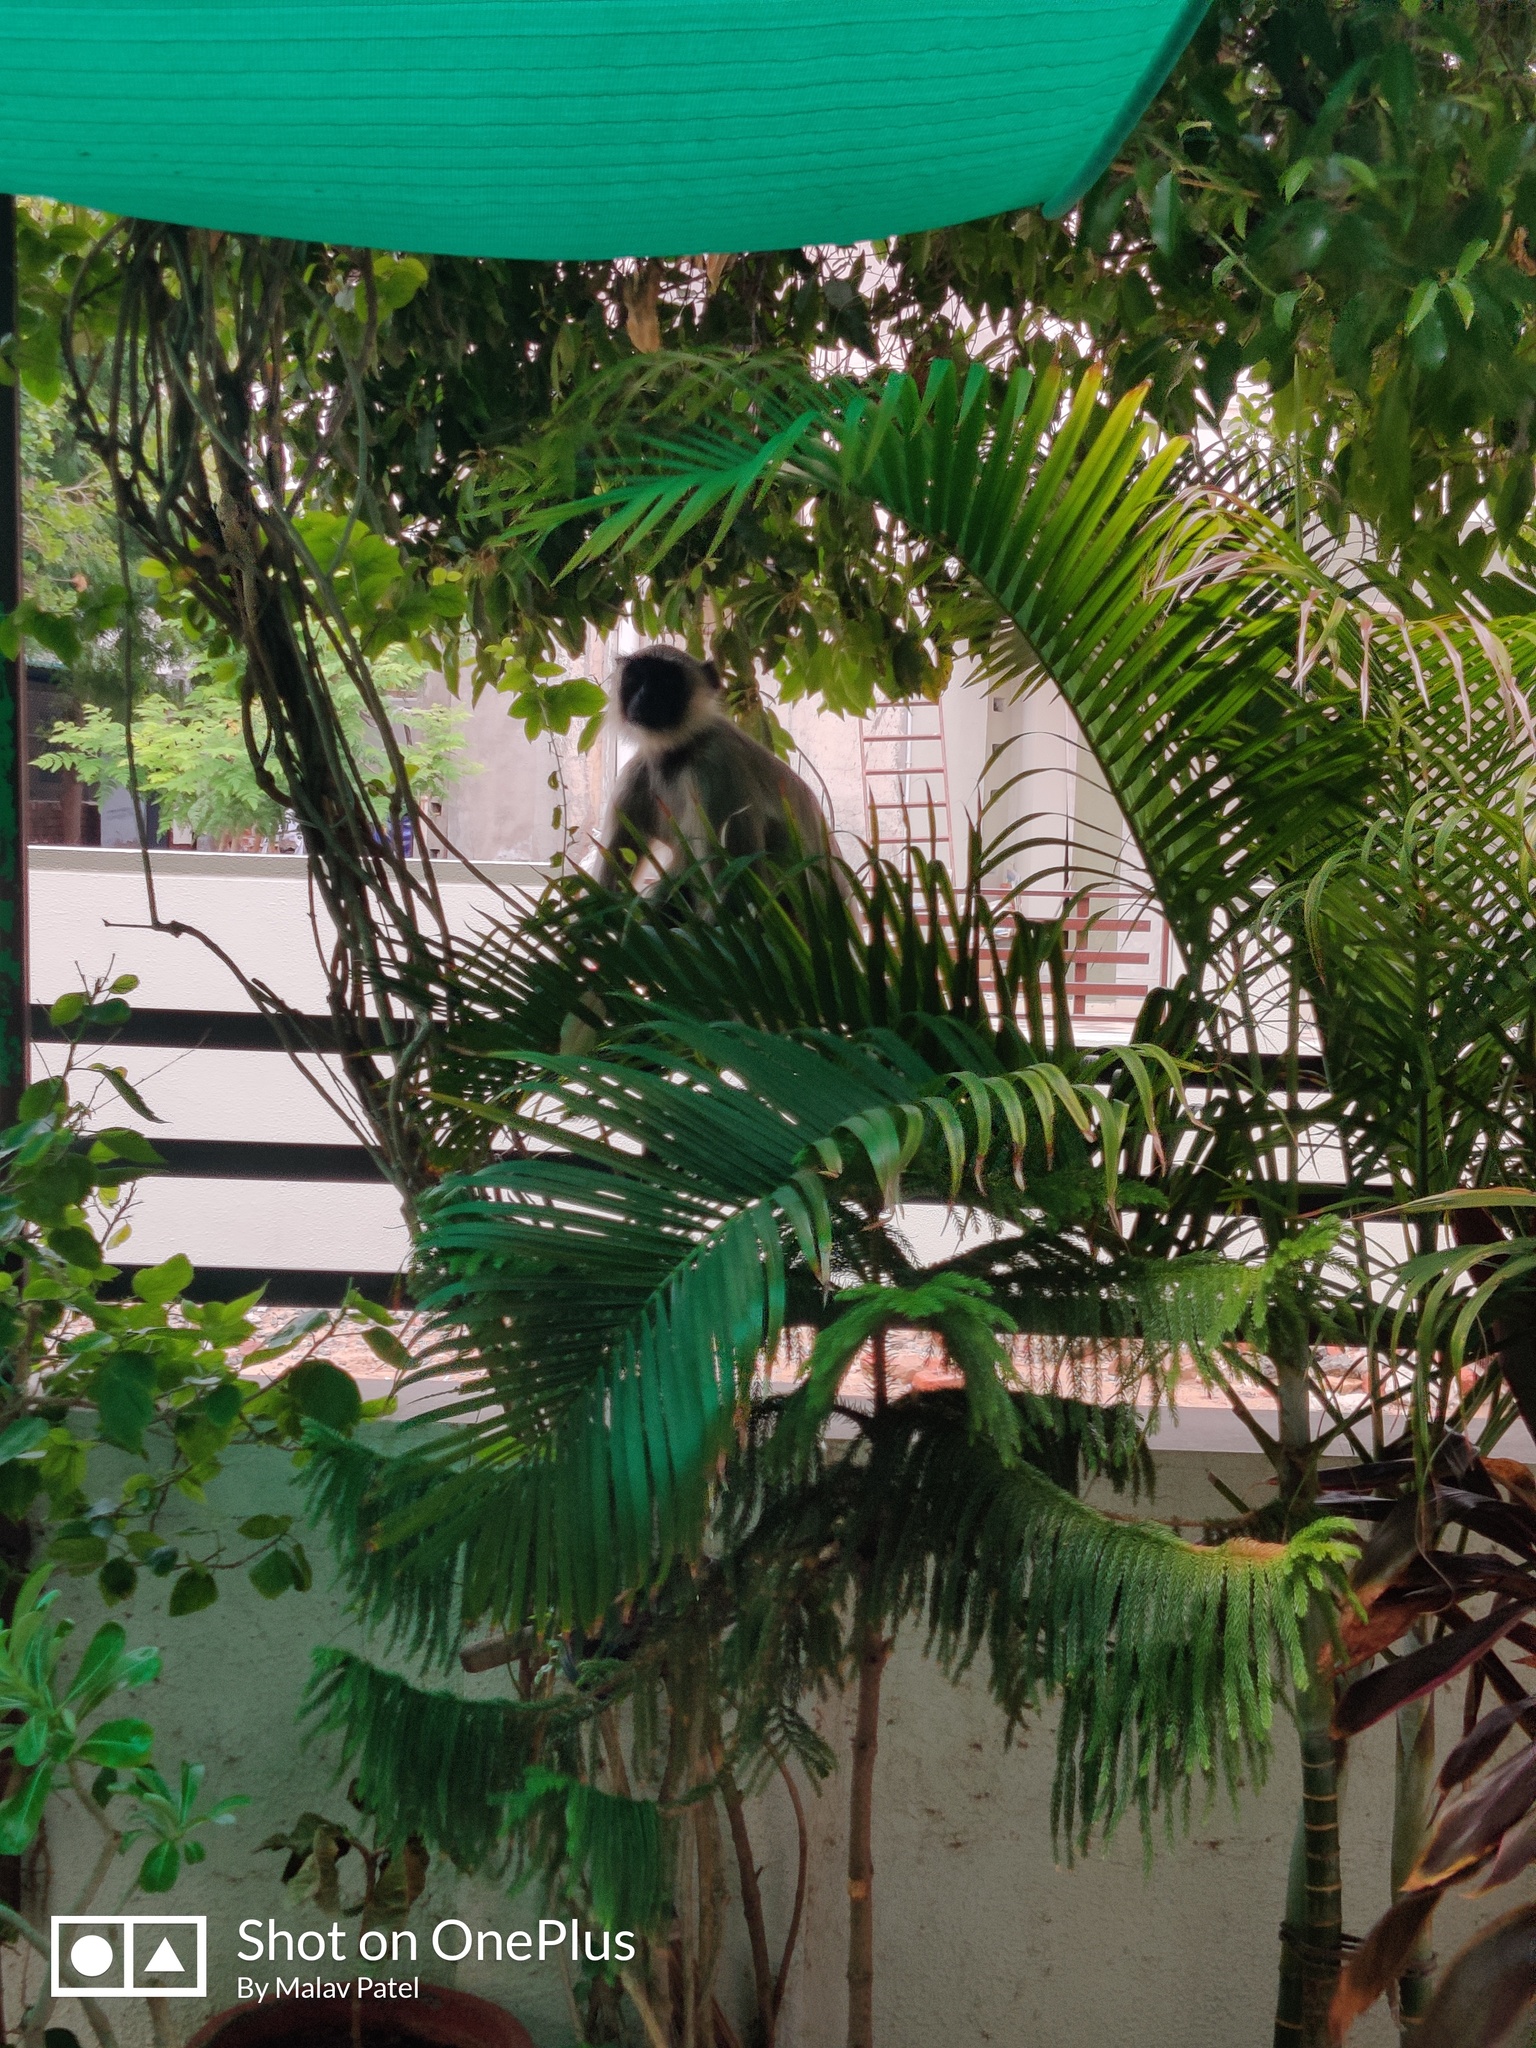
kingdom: Animalia
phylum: Chordata
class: Mammalia
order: Primates
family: Cercopithecidae
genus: Semnopithecus
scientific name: Semnopithecus entellus
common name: Northern plains gray langur
